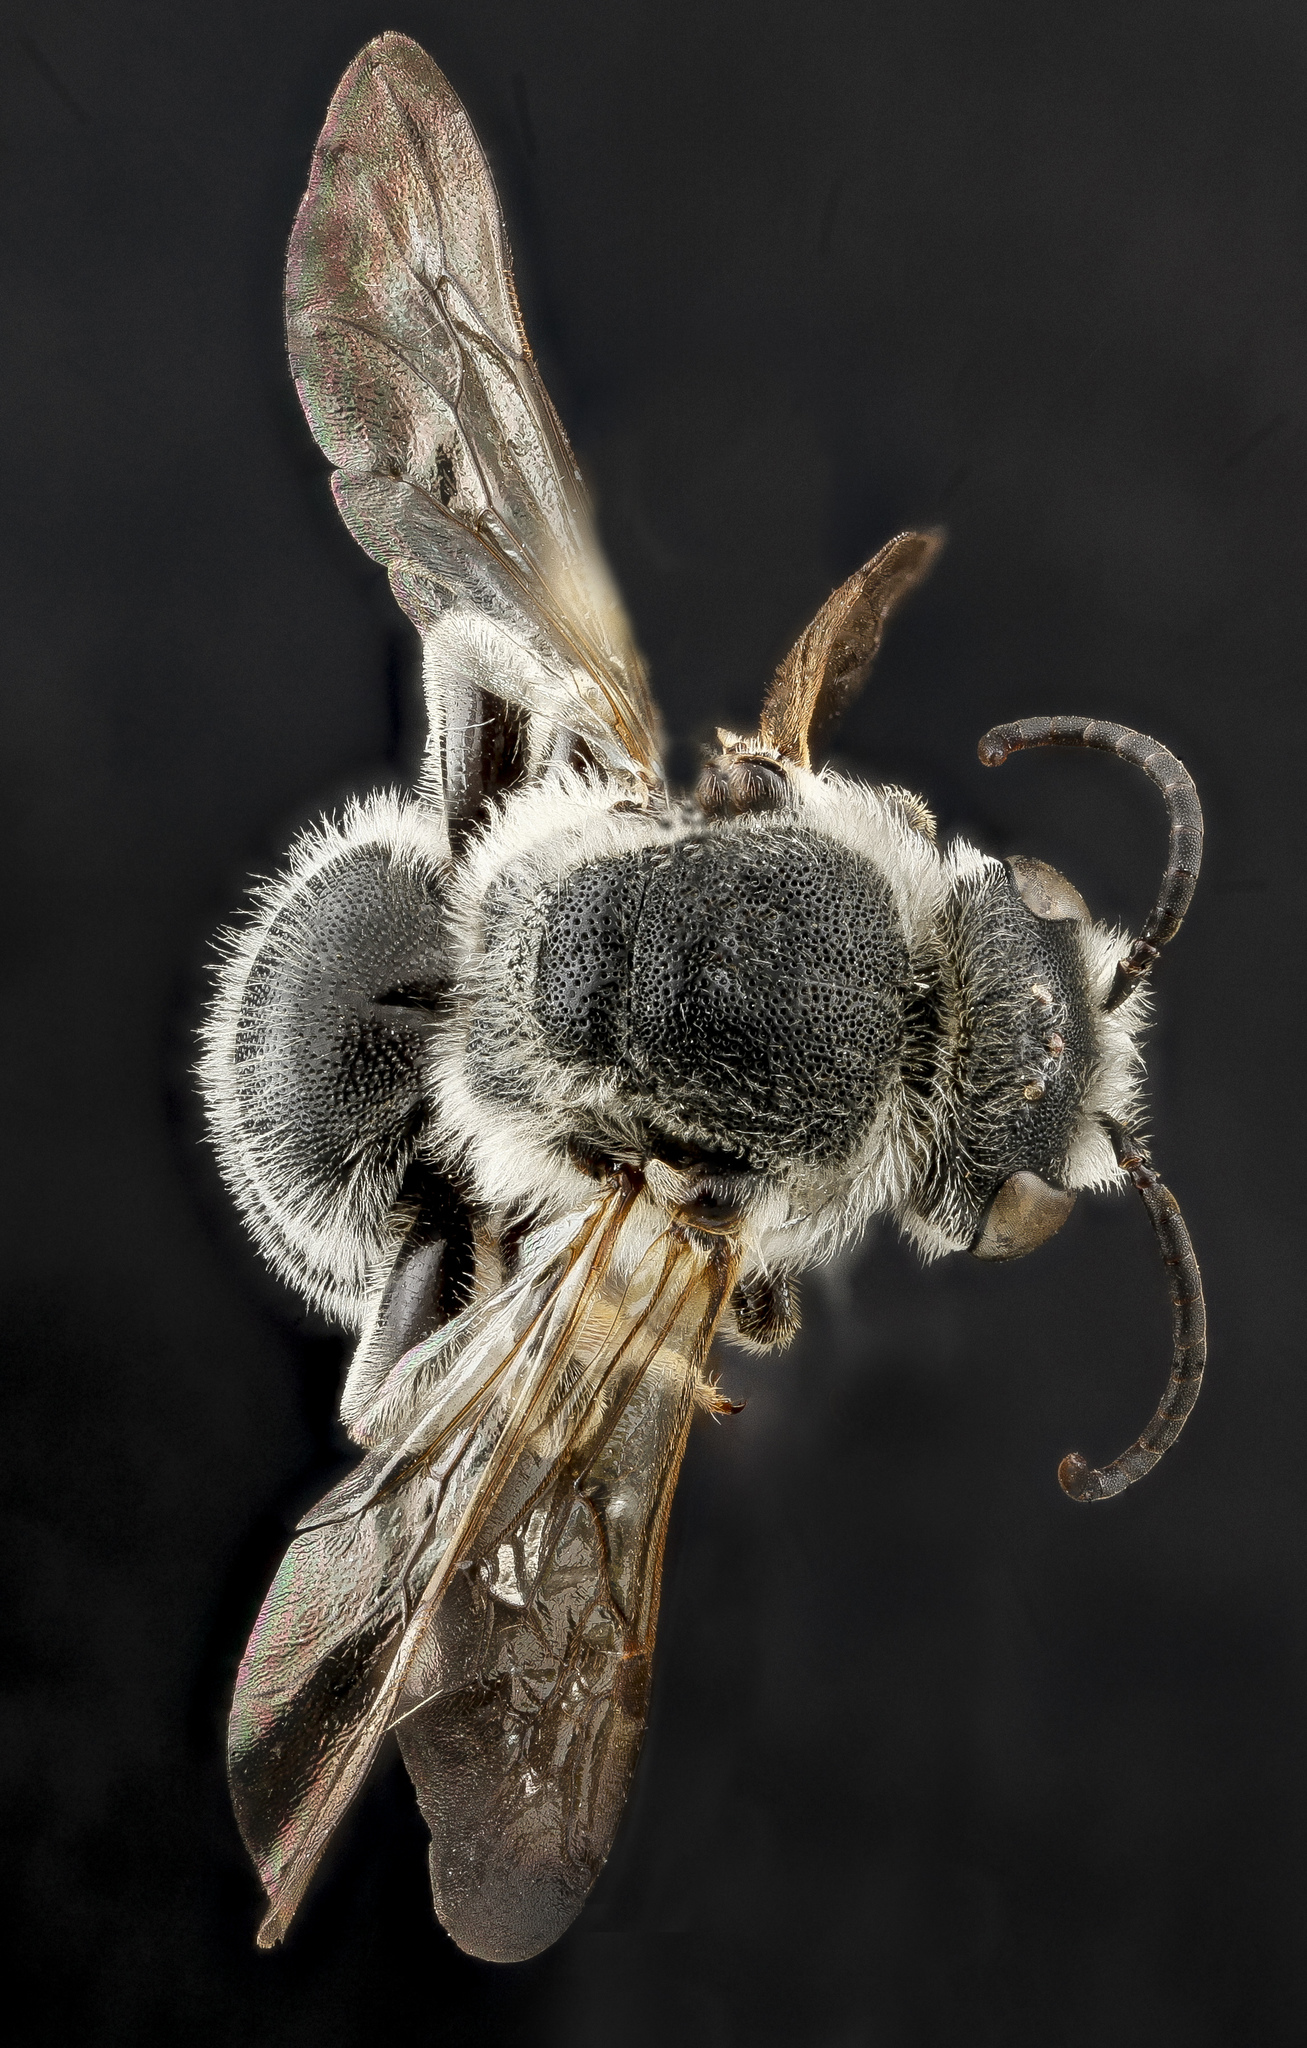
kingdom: Animalia
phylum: Arthropoda
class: Insecta
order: Hymenoptera
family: Halictidae
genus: Nomia
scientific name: Nomia universitatis
